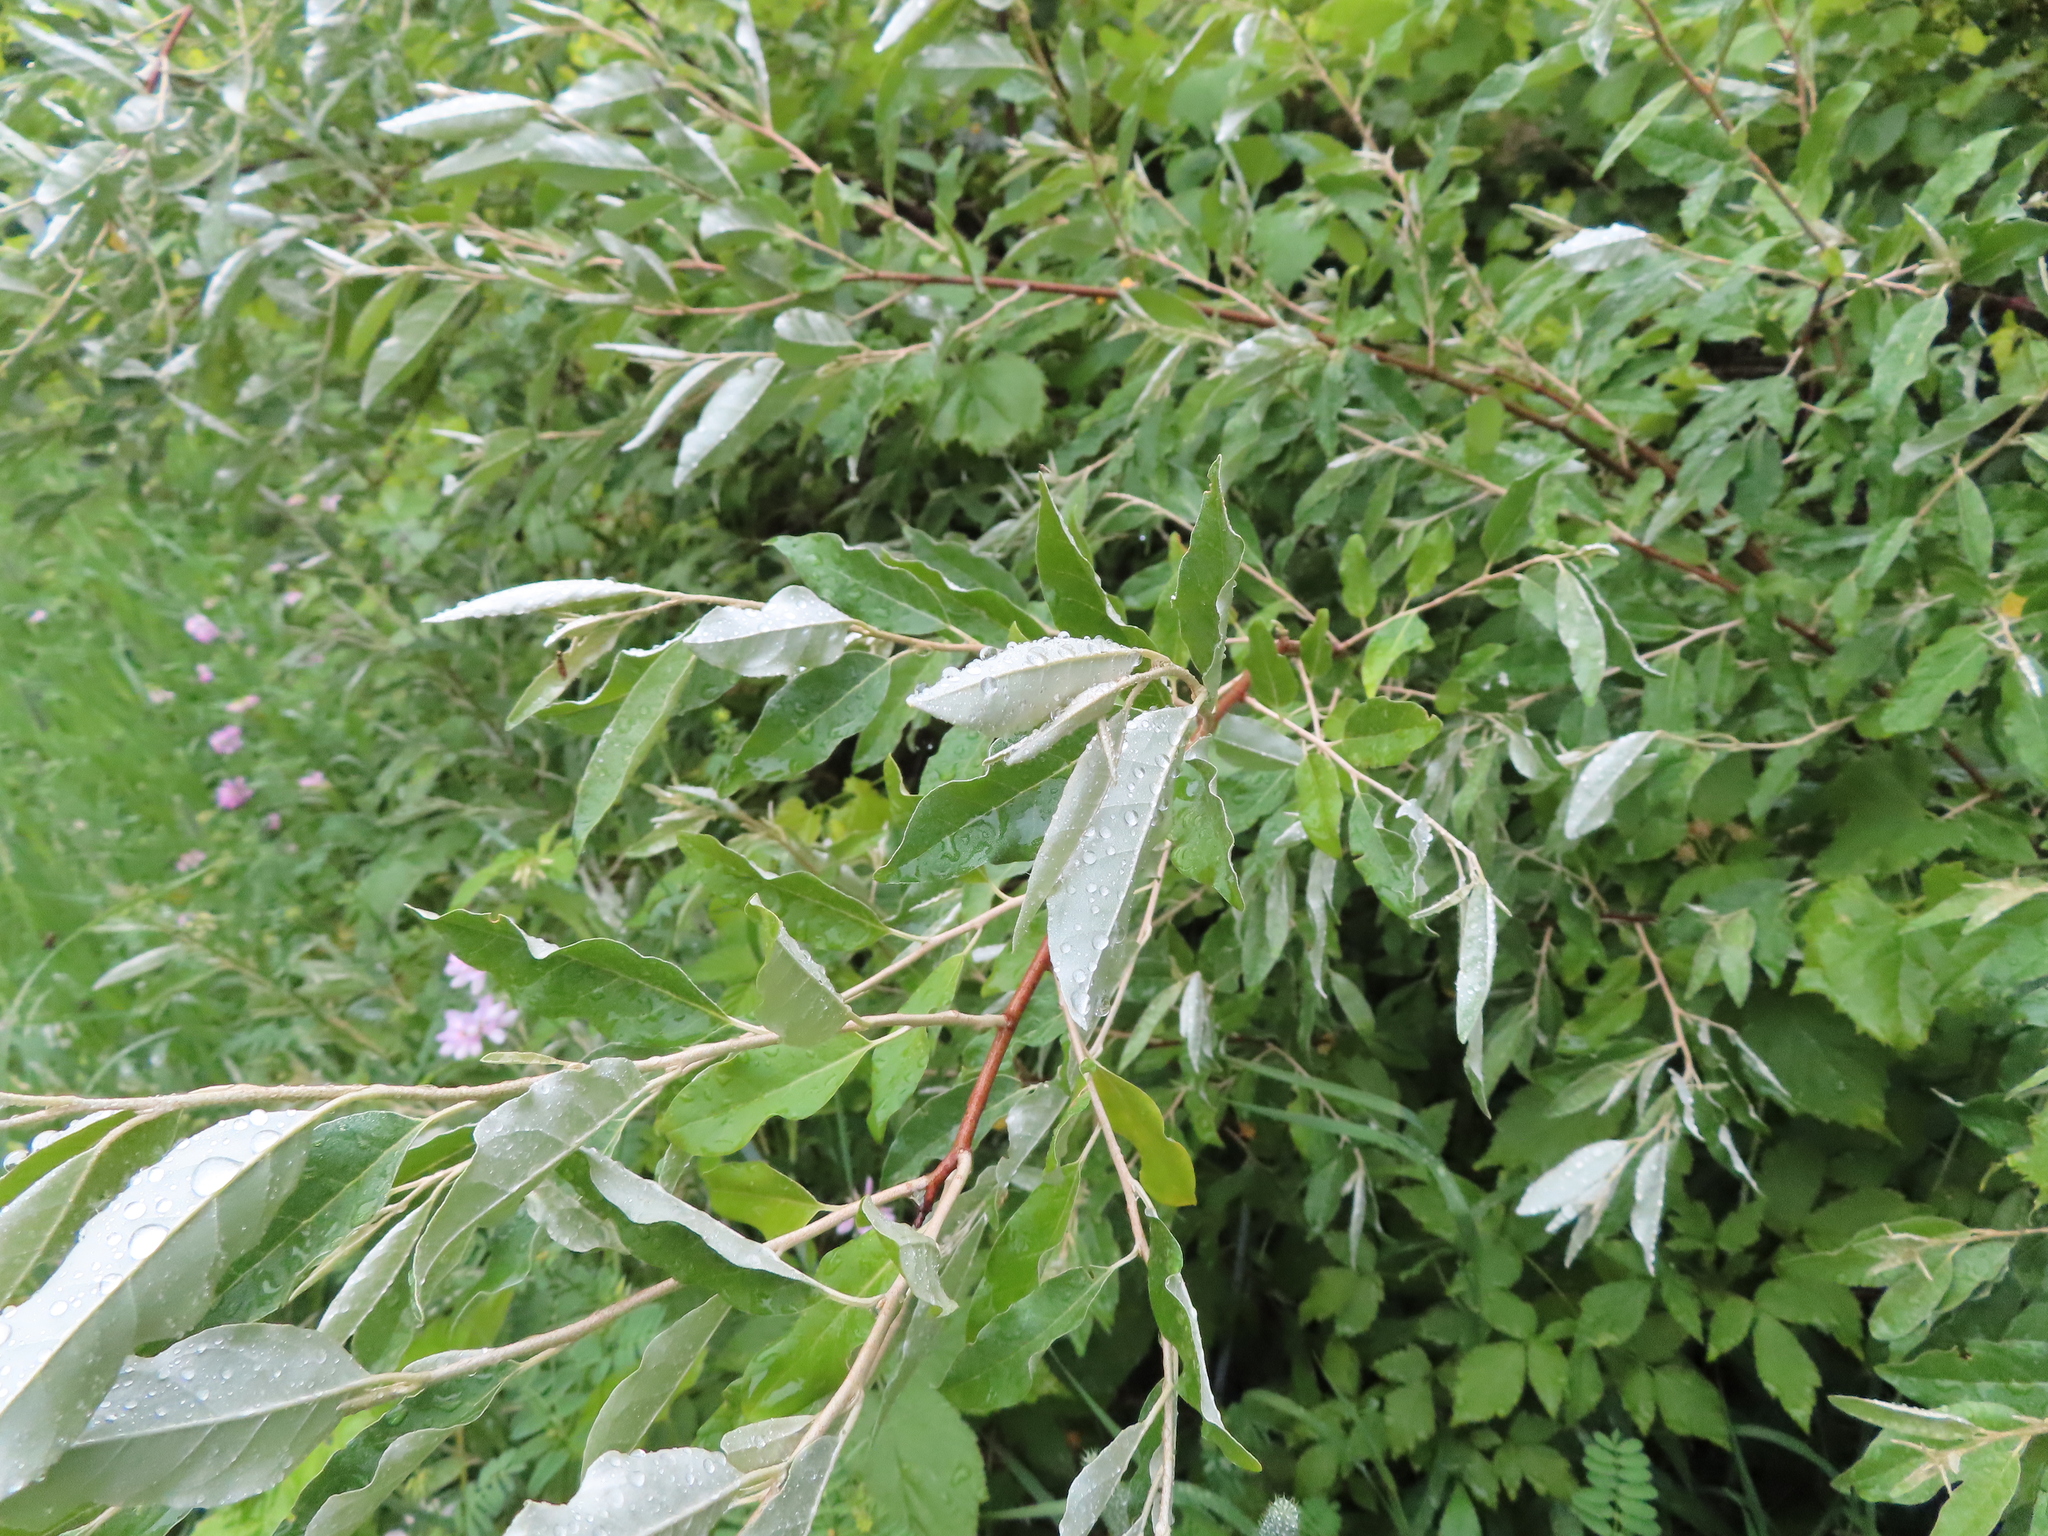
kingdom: Plantae
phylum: Tracheophyta
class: Magnoliopsida
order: Rosales
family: Elaeagnaceae
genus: Elaeagnus
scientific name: Elaeagnus umbellata
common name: Autumn olive
